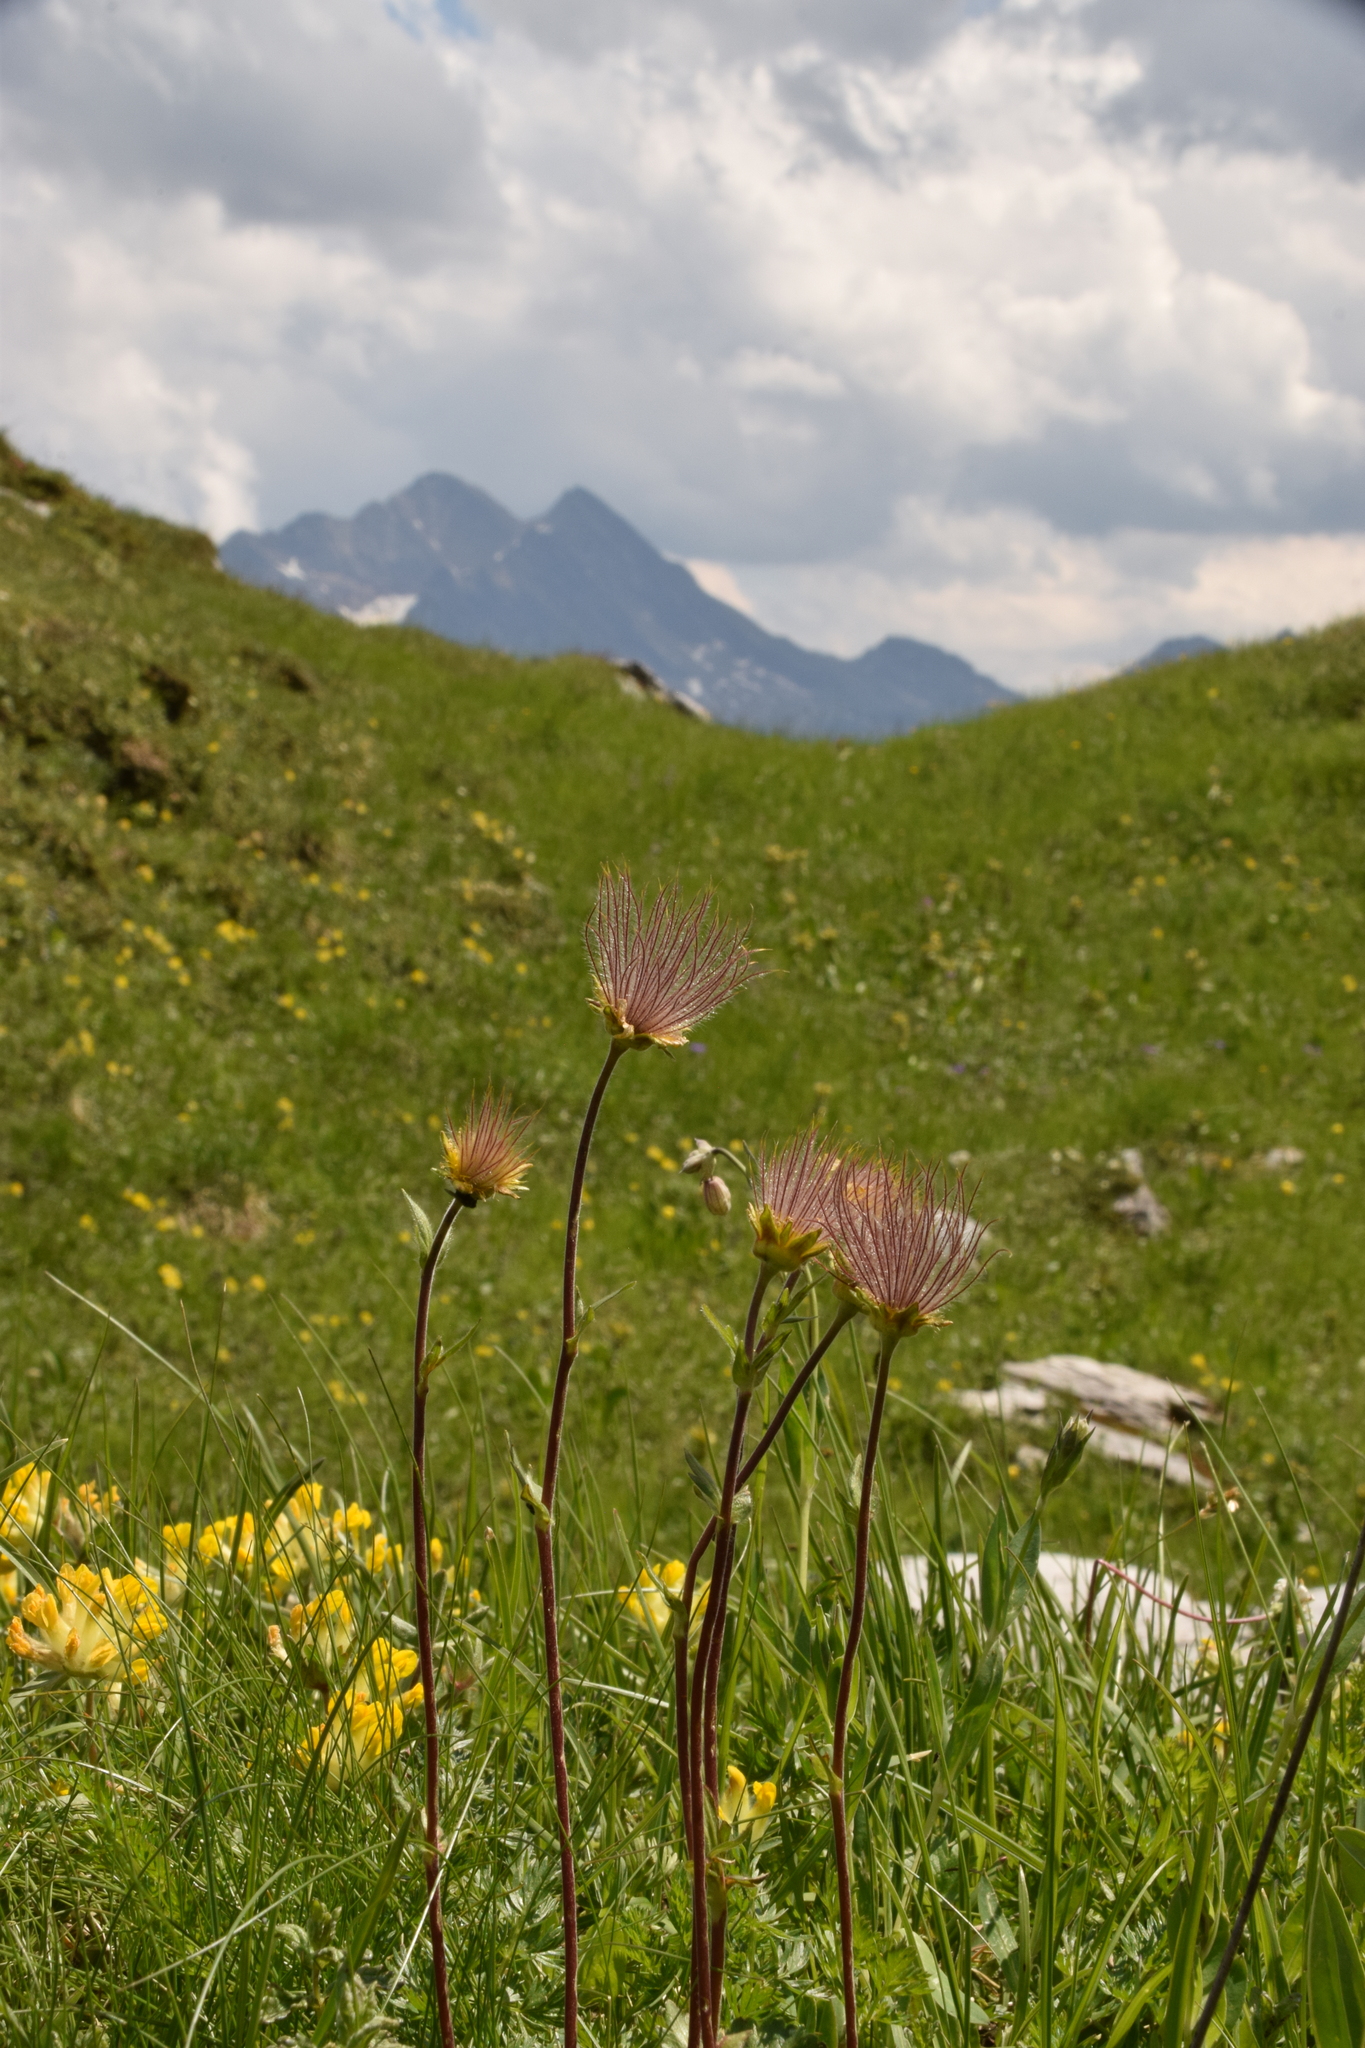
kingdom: Plantae
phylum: Tracheophyta
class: Magnoliopsida
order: Rosales
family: Rosaceae
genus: Geum
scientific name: Geum montanum
